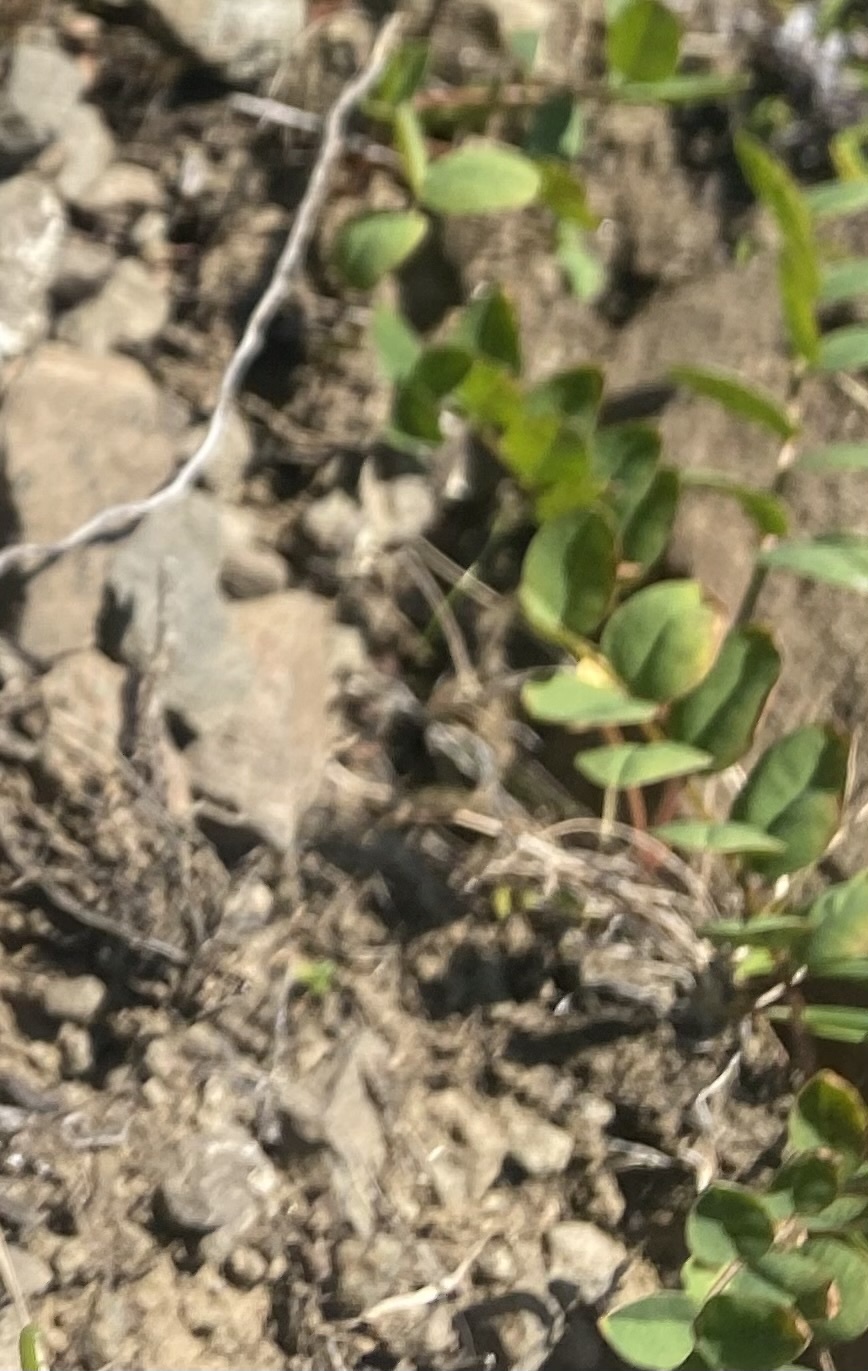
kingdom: Plantae
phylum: Tracheophyta
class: Magnoliopsida
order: Fabales
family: Fabaceae
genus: Astragalus
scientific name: Astragalus alpinus
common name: Alpine milk-vetch
